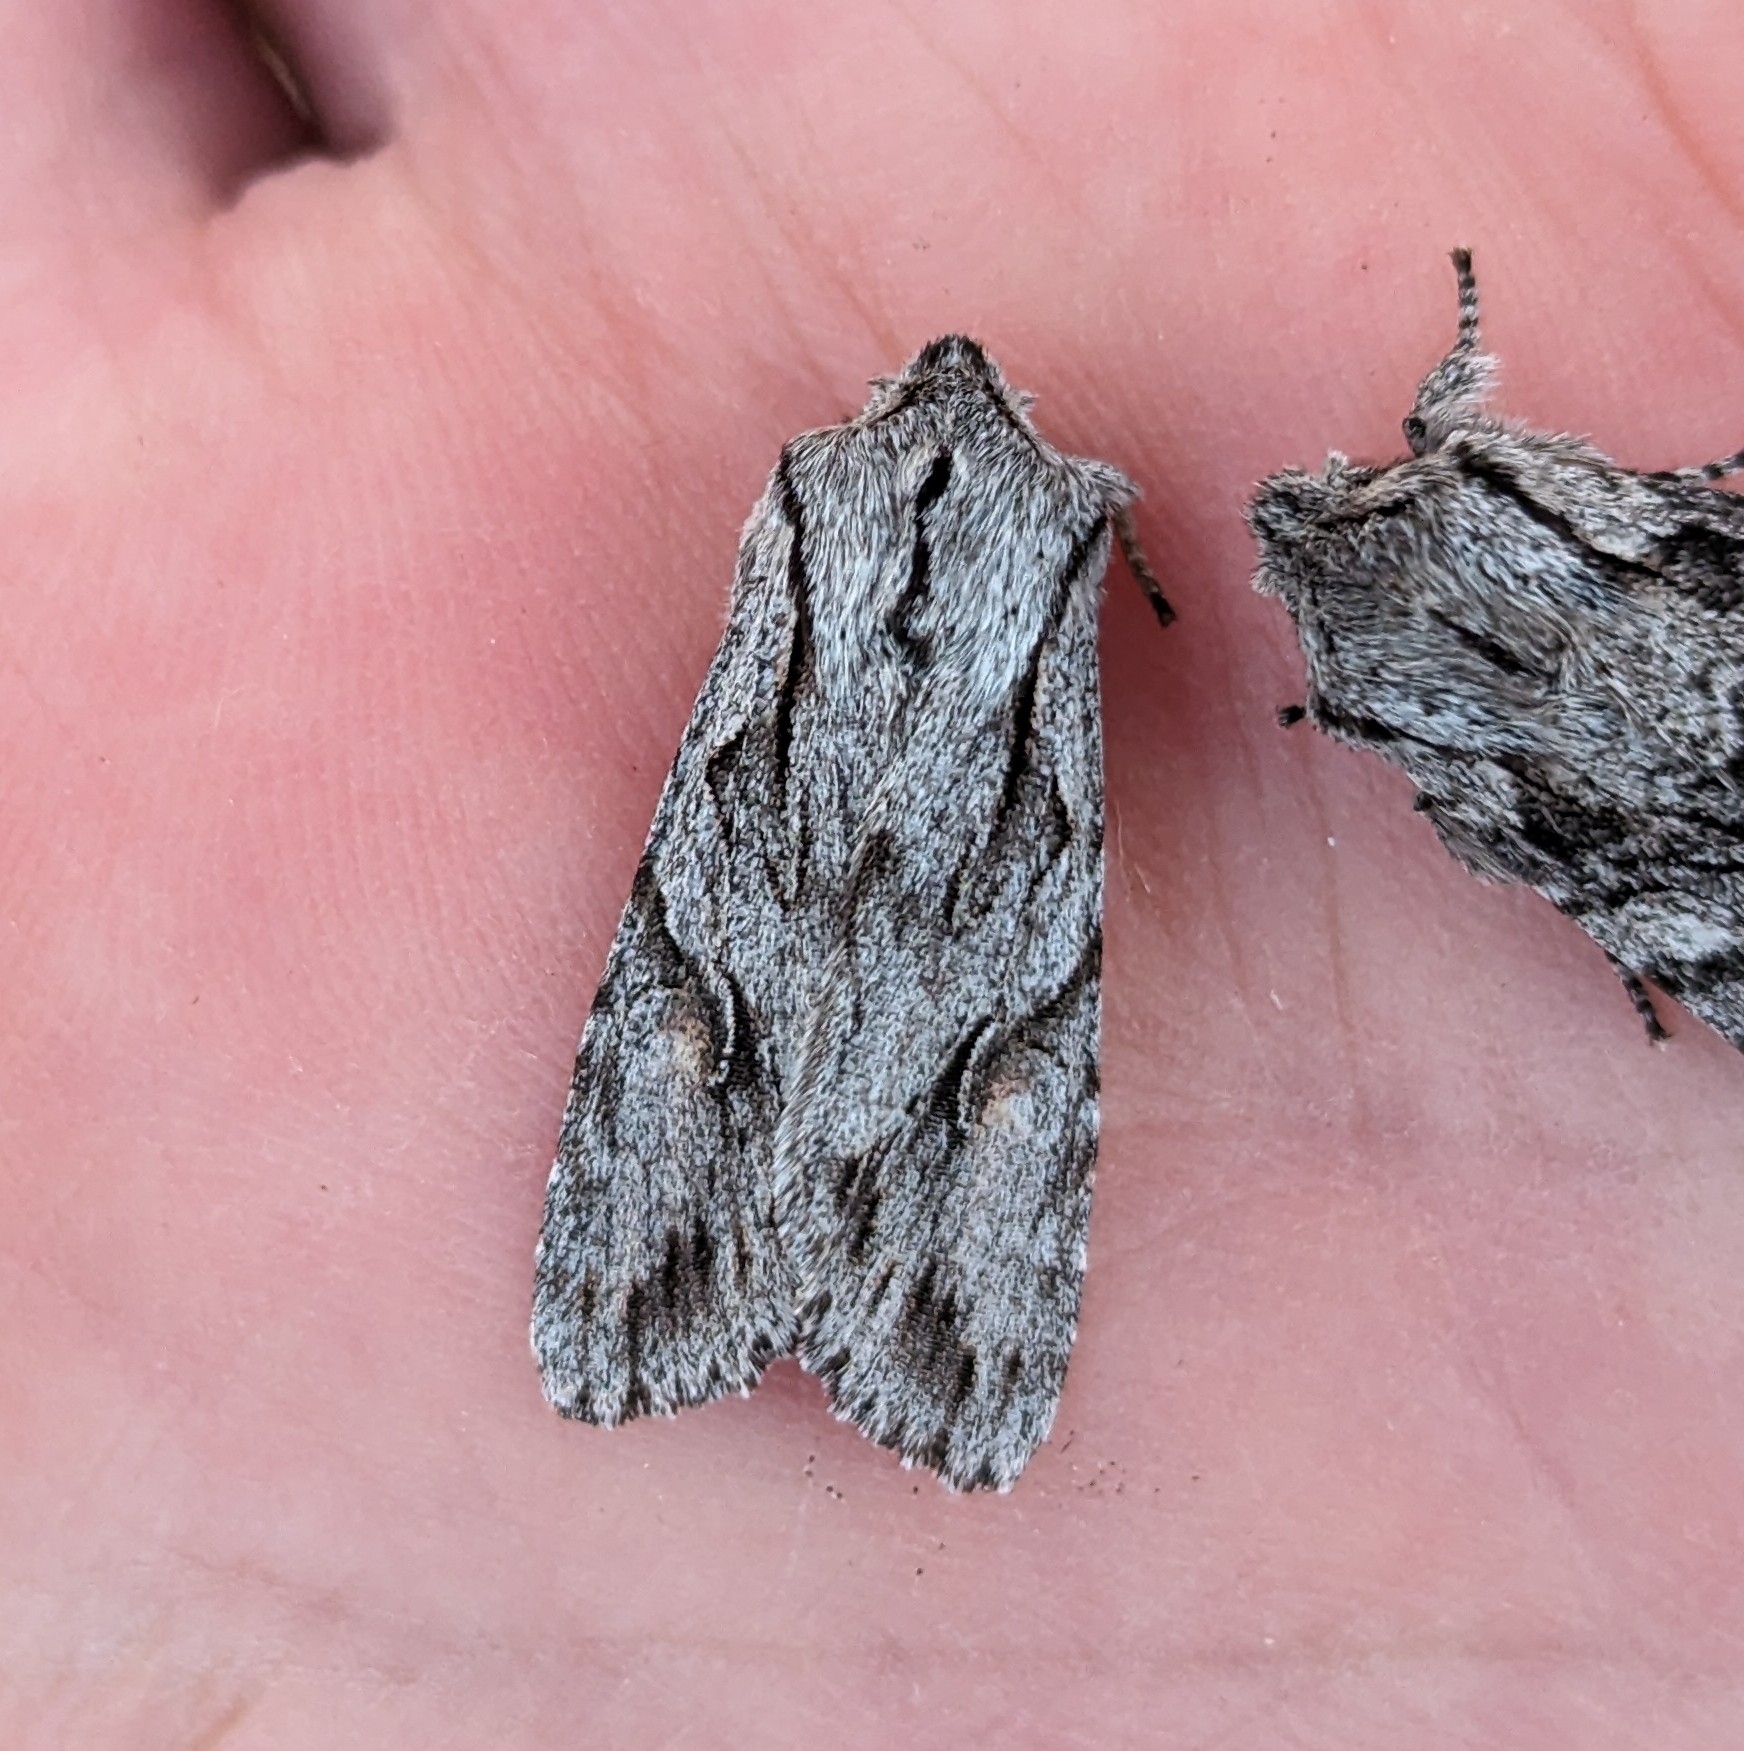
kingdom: Animalia
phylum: Arthropoda
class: Insecta
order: Lepidoptera
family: Noctuidae
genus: Egira
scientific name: Egira crucialis
